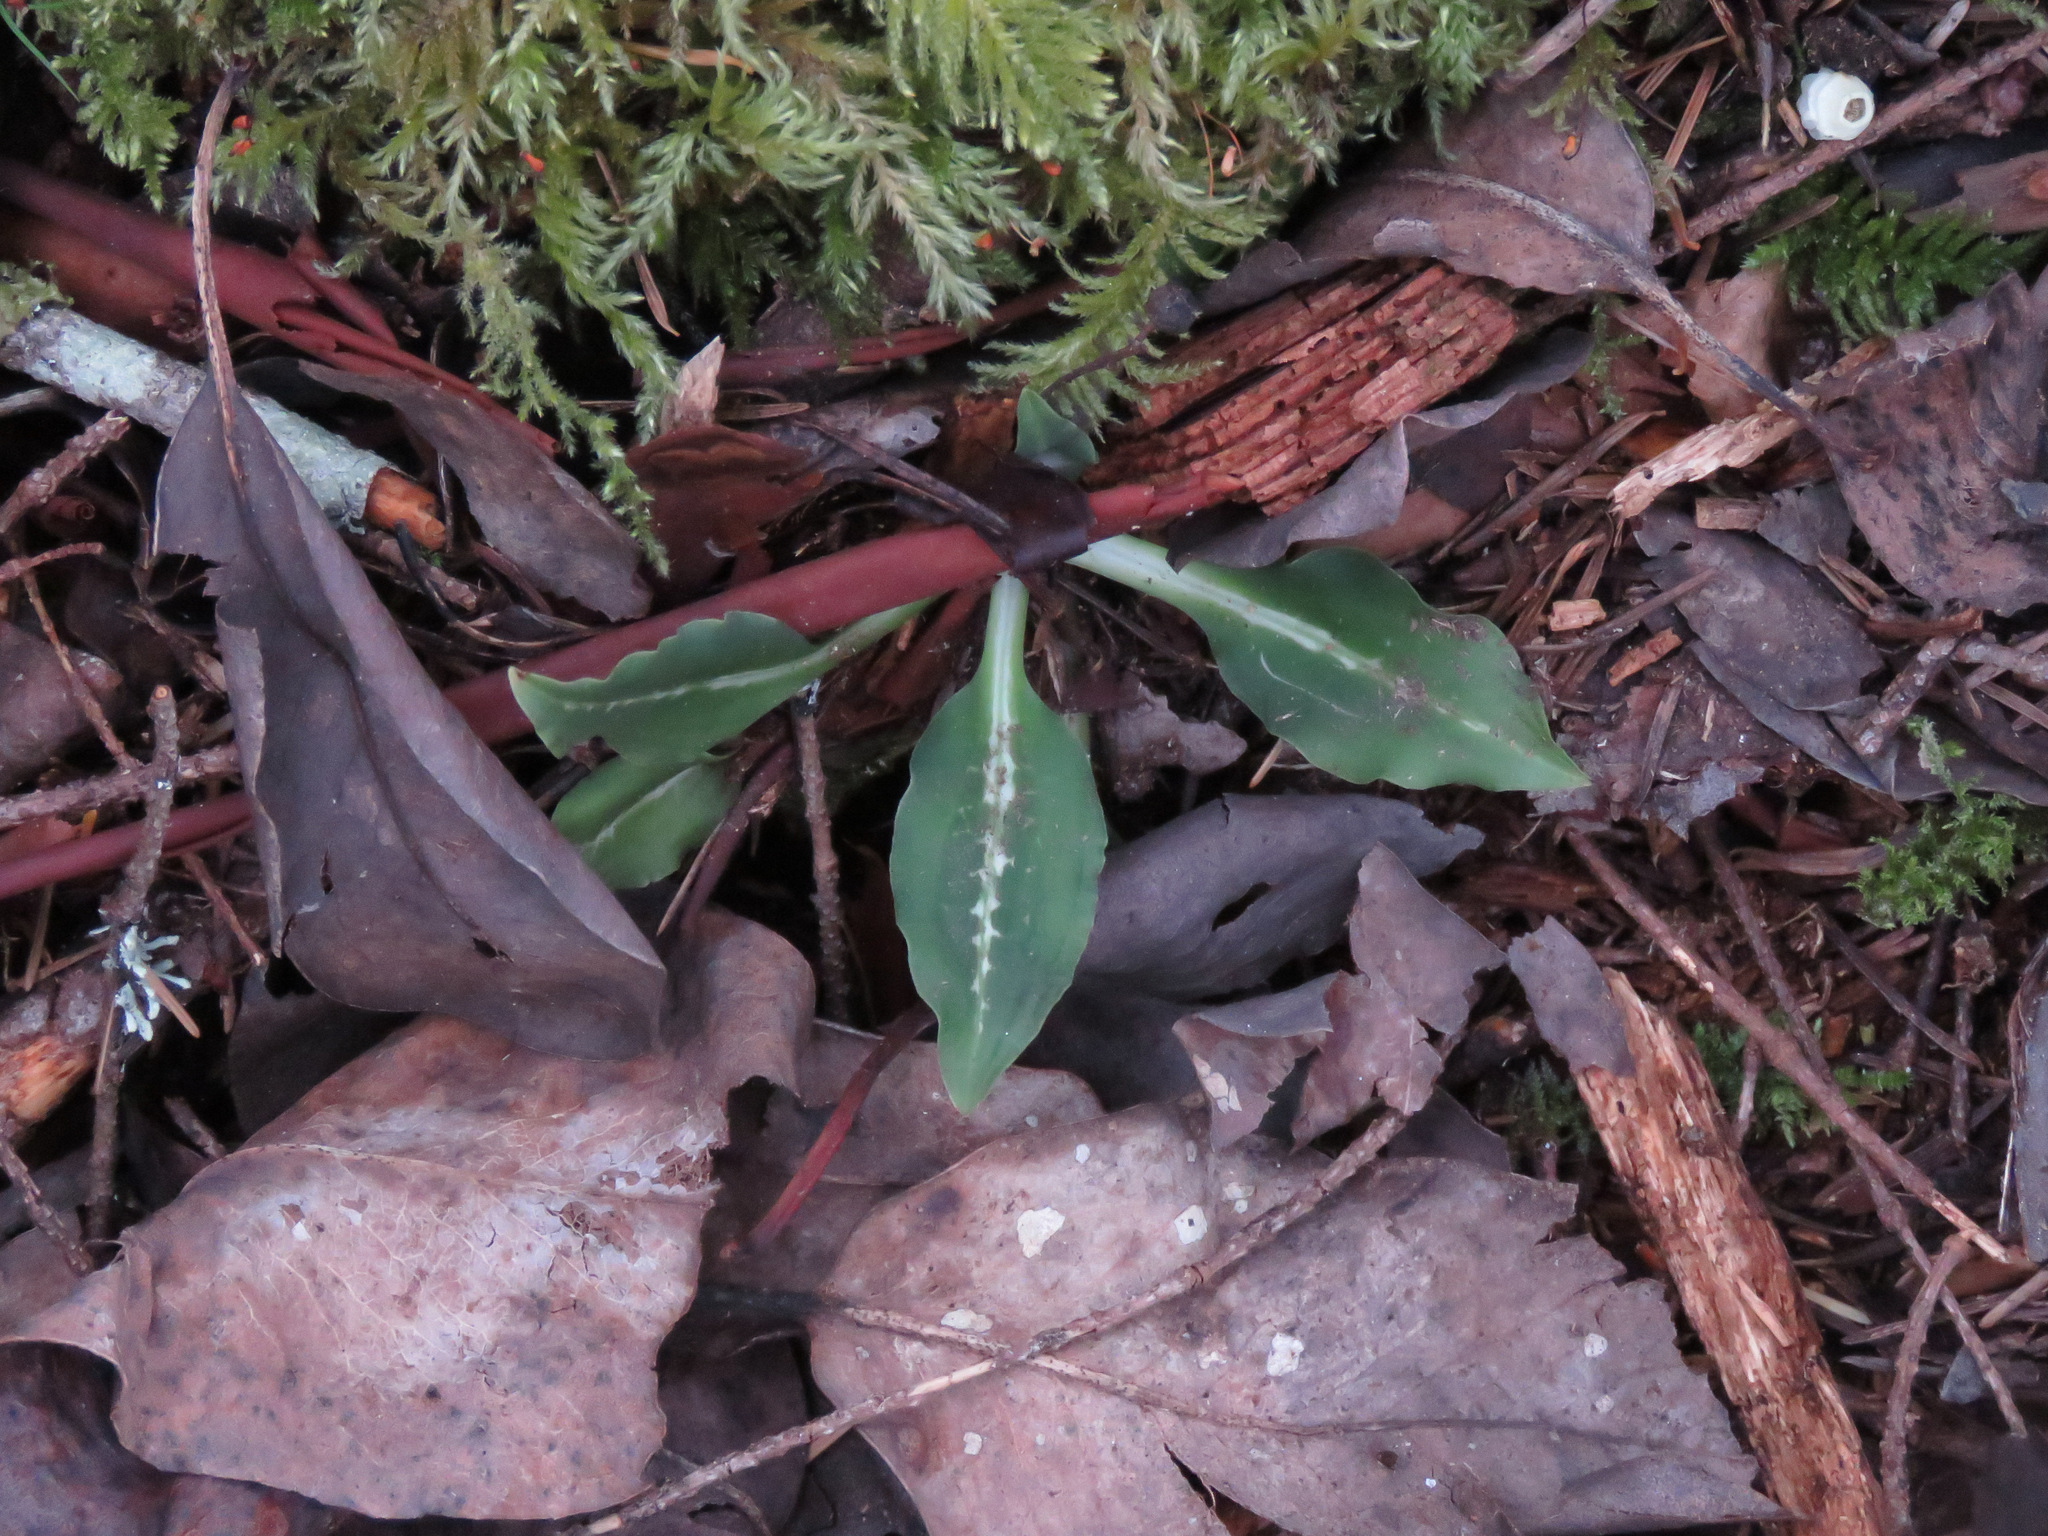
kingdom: Plantae
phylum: Tracheophyta
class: Liliopsida
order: Asparagales
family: Orchidaceae
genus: Goodyera
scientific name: Goodyera oblongifolia
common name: Giant rattlesnake-plantain
